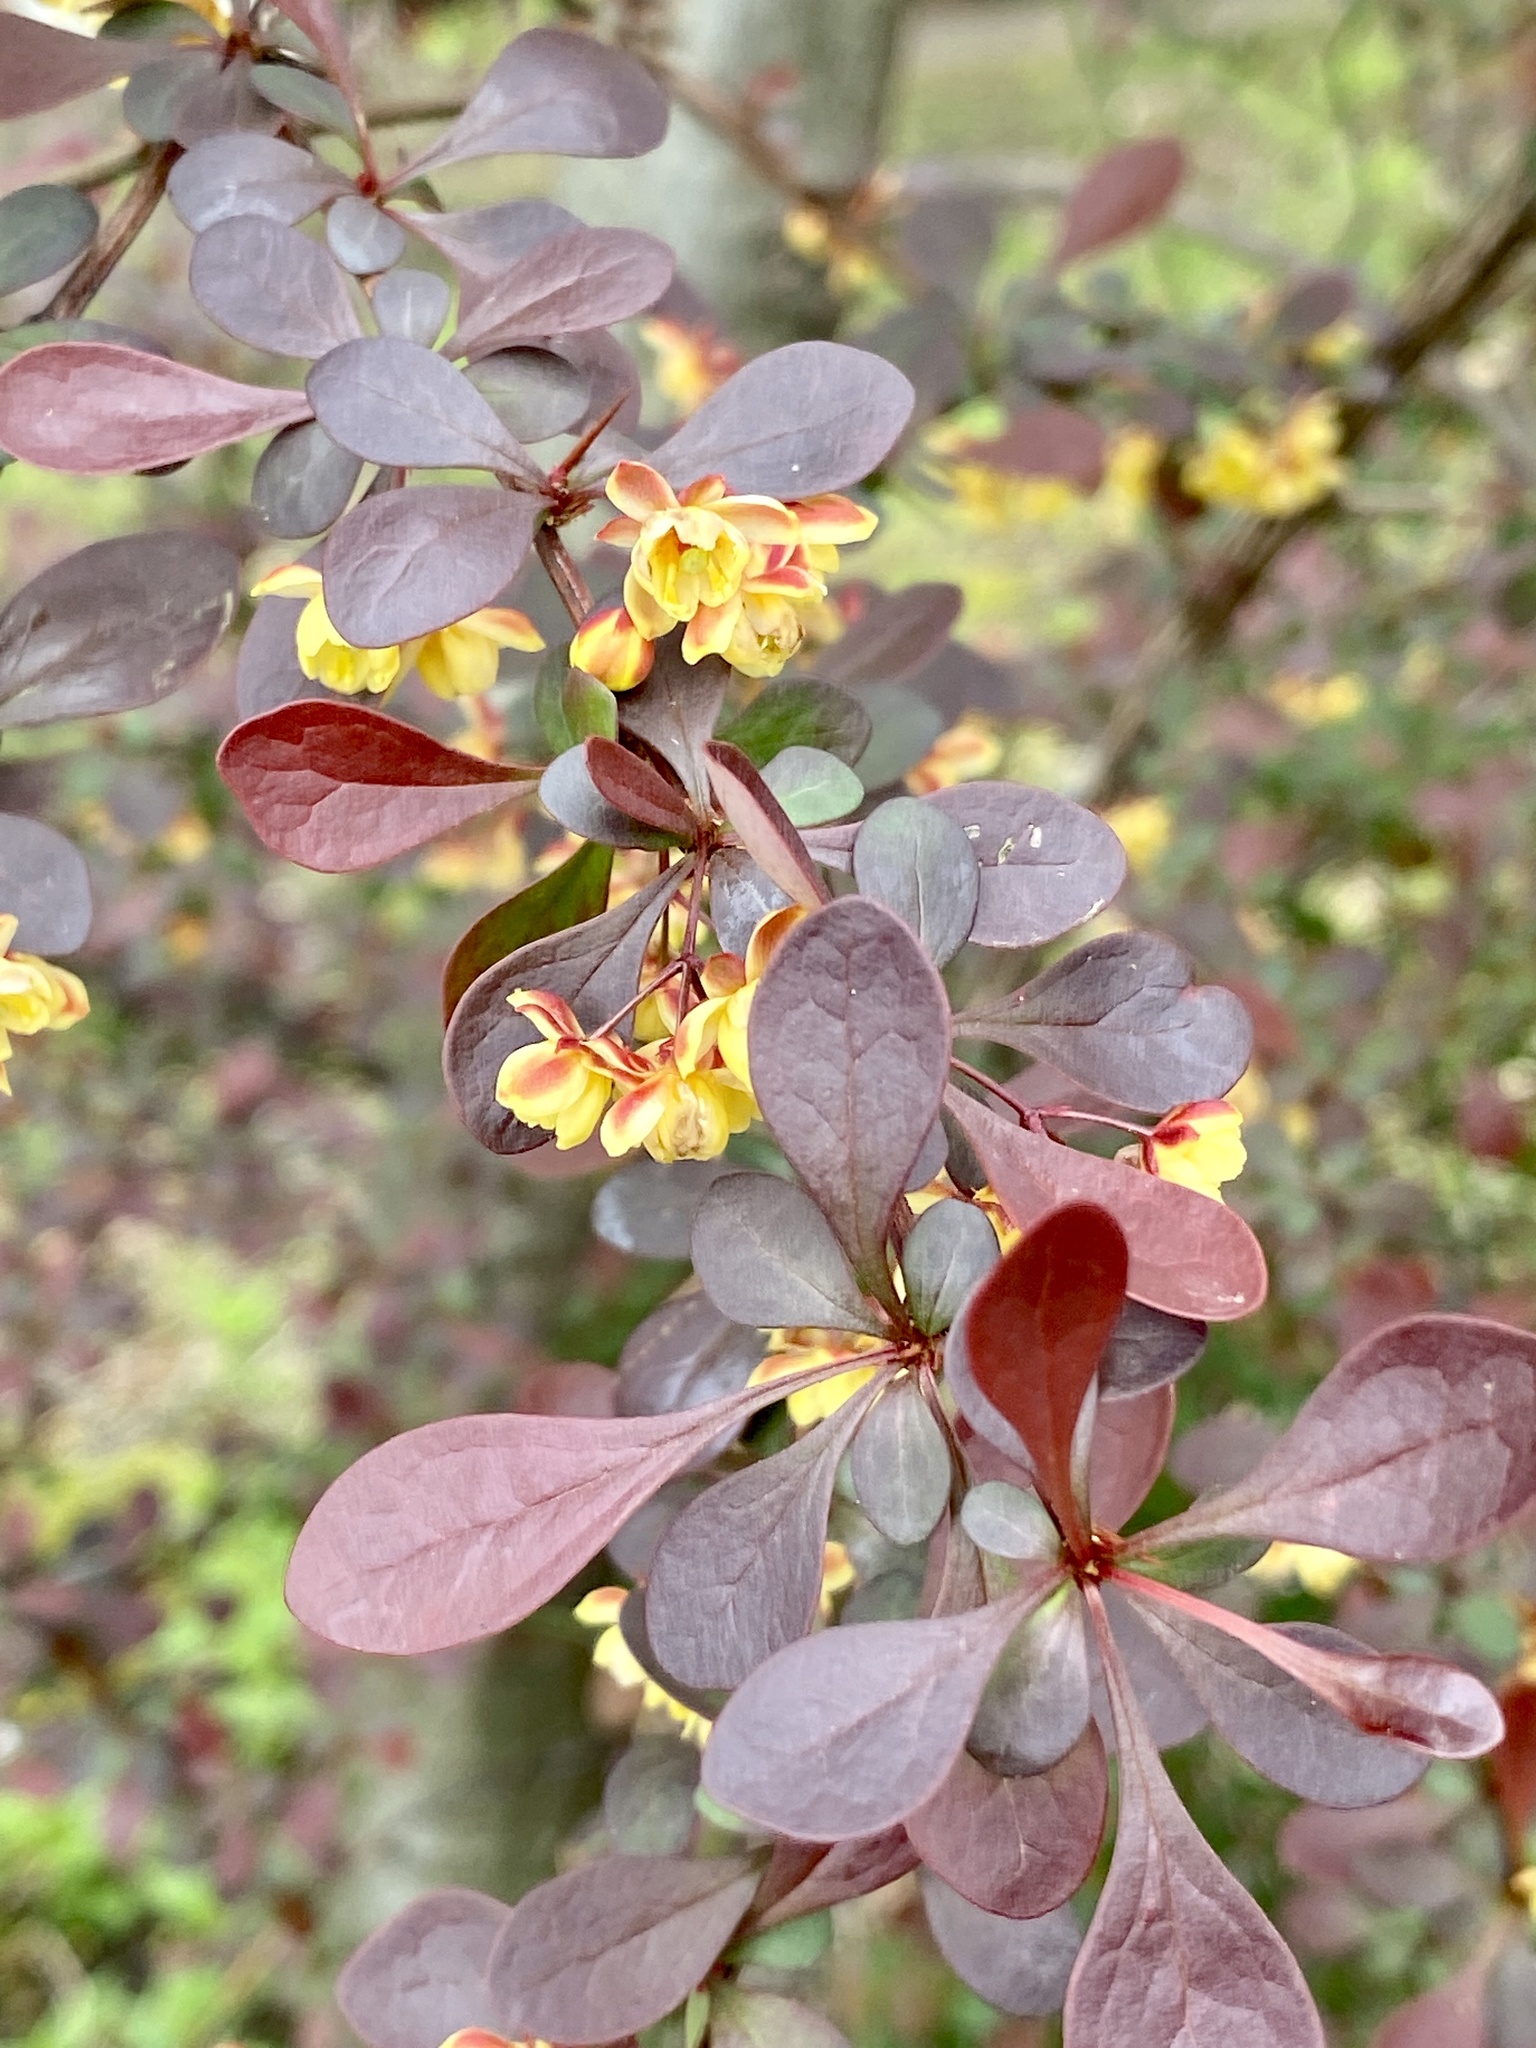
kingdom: Plantae
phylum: Tracheophyta
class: Magnoliopsida
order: Ranunculales
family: Berberidaceae
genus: Berberis
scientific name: Berberis thunbergii
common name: Japanese barberry
